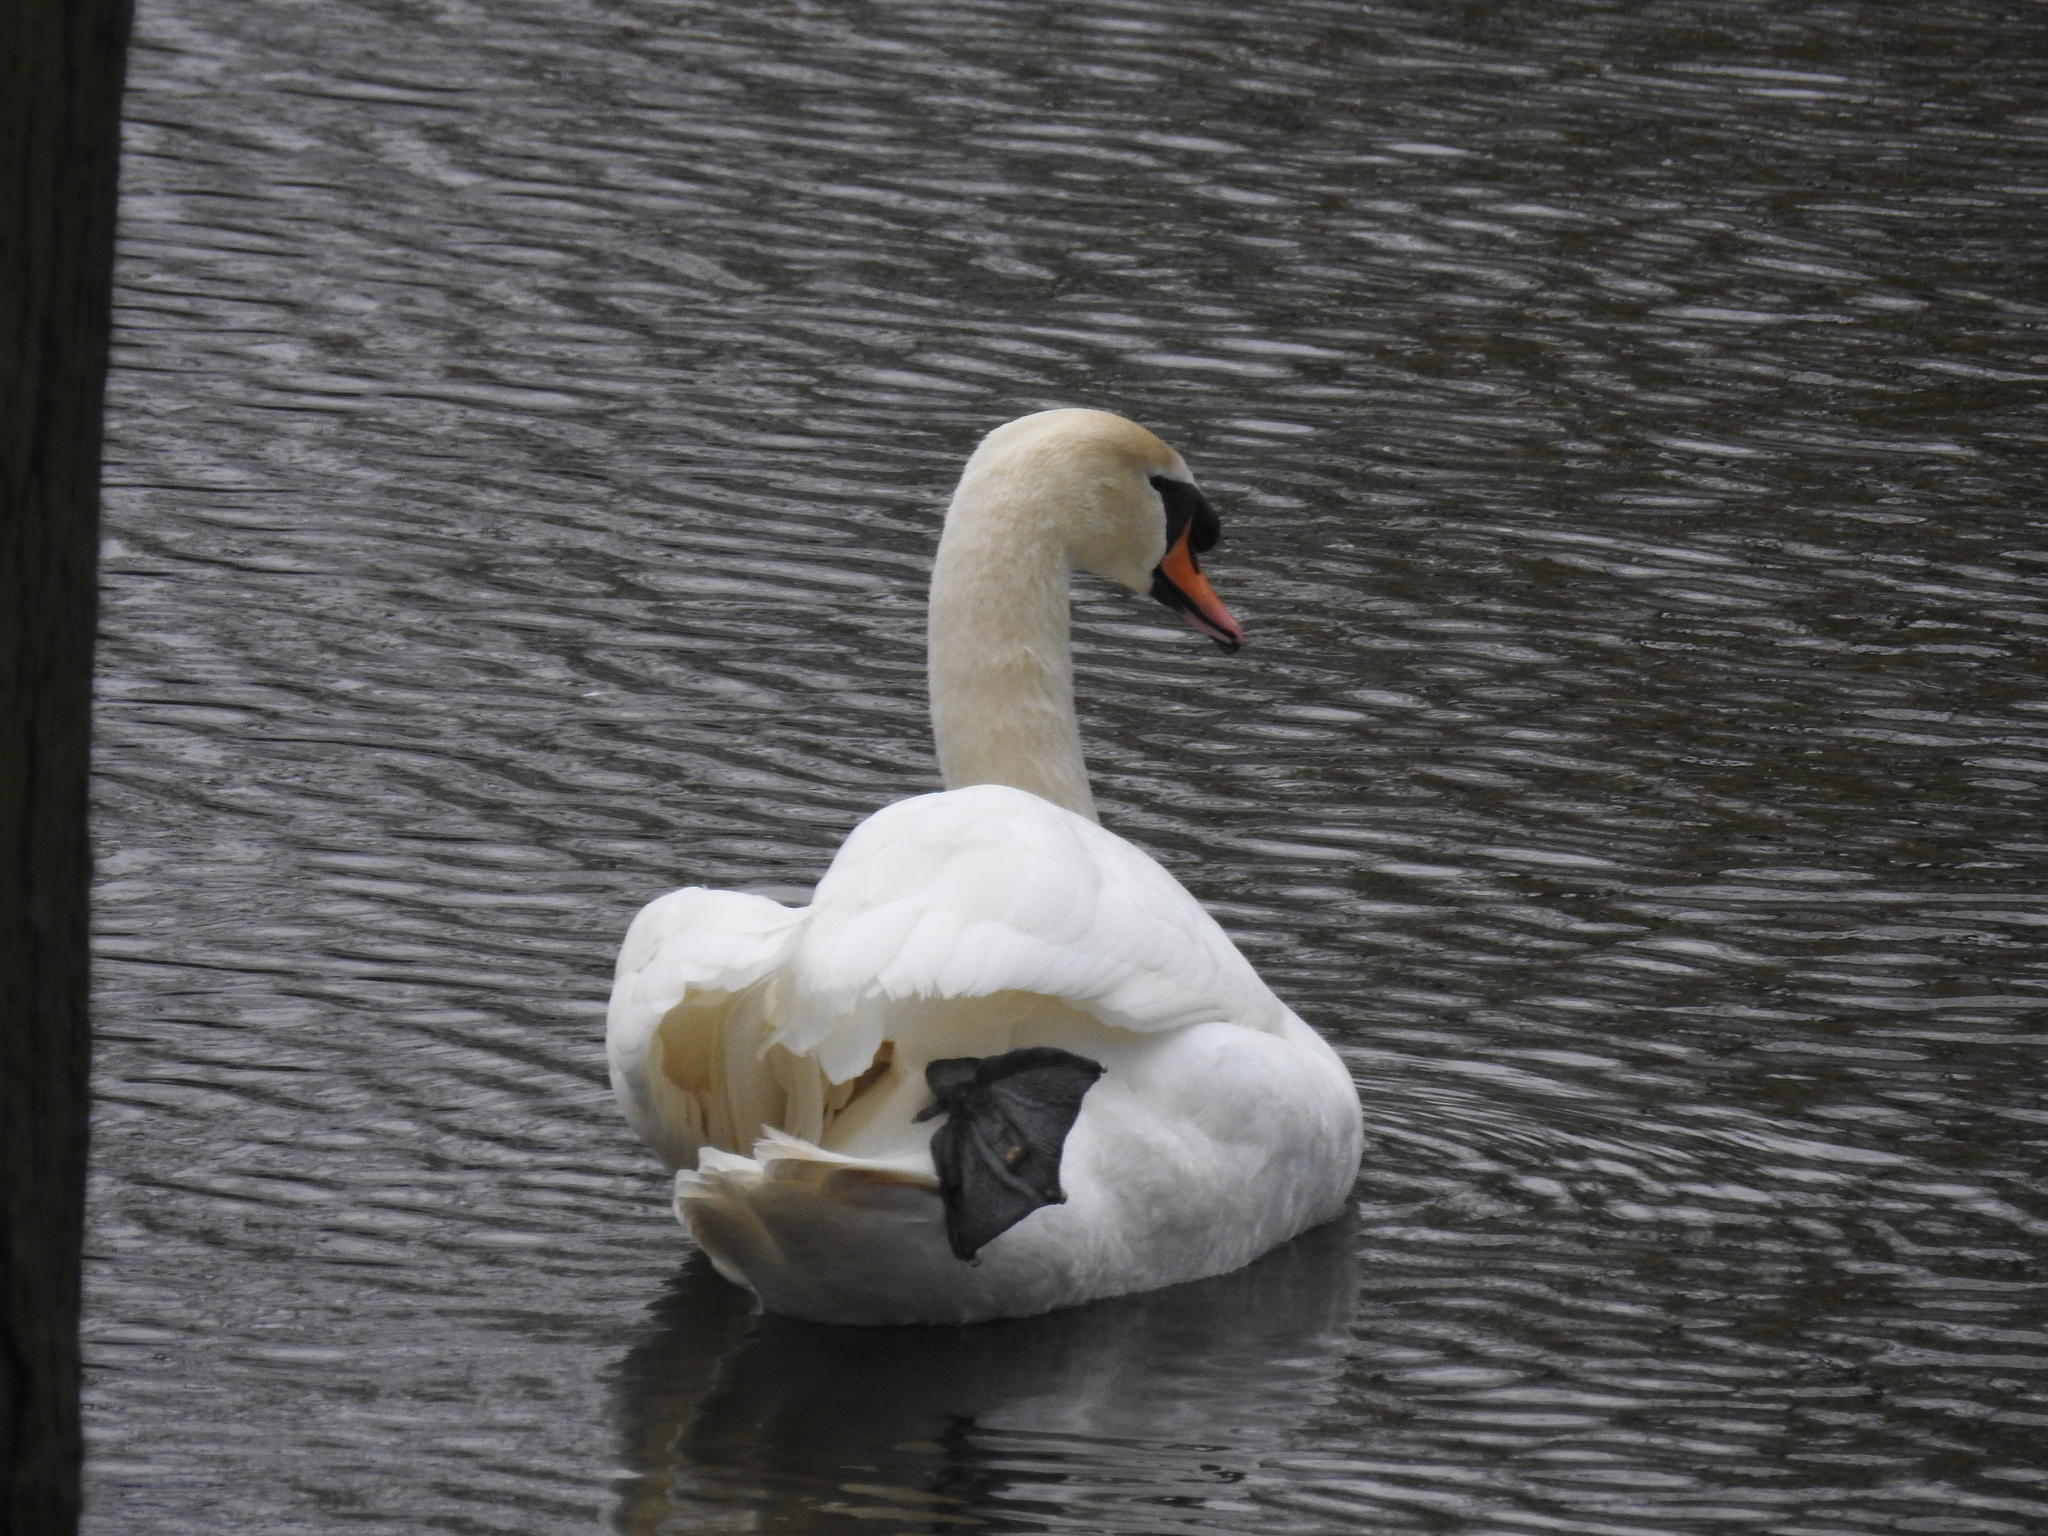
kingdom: Animalia
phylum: Chordata
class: Aves
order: Anseriformes
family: Anatidae
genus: Cygnus
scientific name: Cygnus olor
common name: Mute swan
